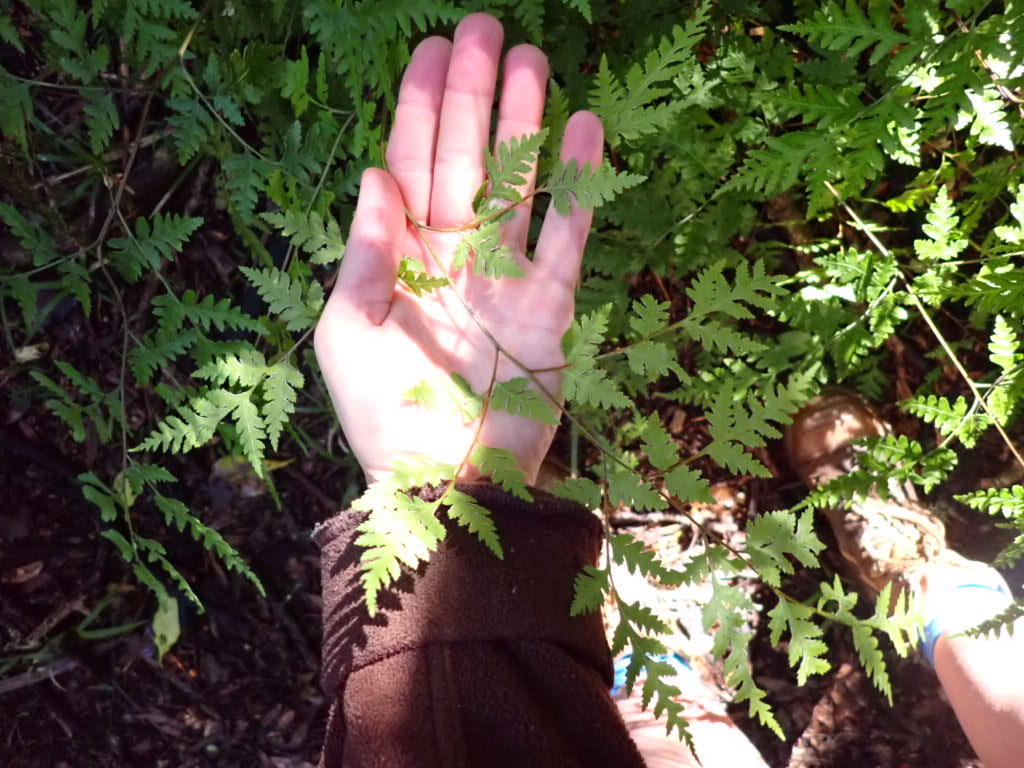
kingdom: Plantae
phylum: Tracheophyta
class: Polypodiopsida
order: Polypodiales
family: Pteridaceae
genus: Pteris
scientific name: Pteris macilenta
